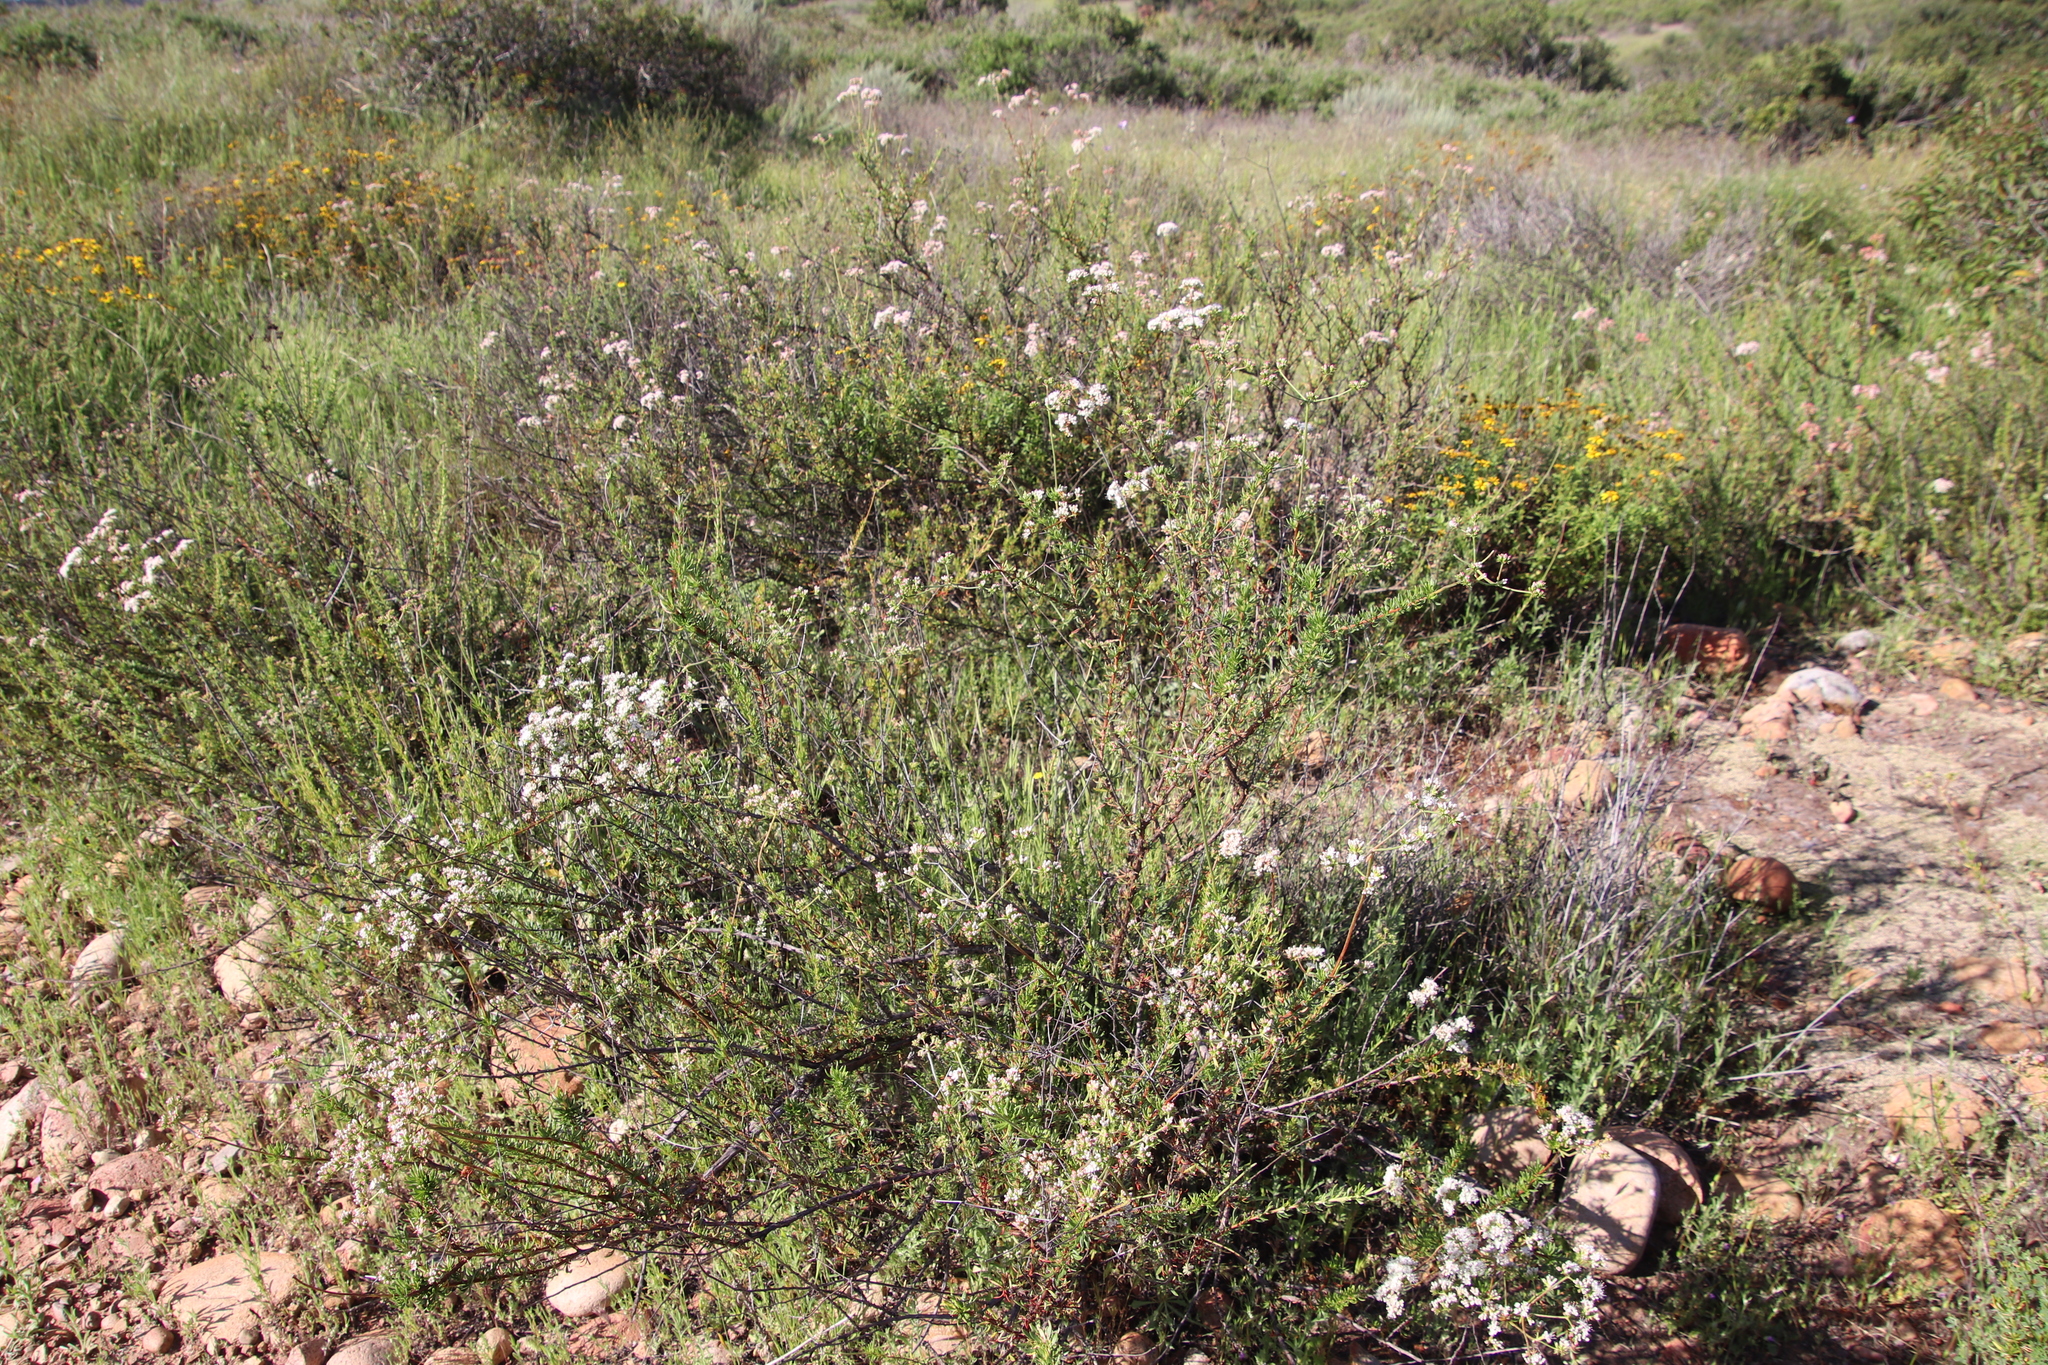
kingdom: Plantae
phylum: Tracheophyta
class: Magnoliopsida
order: Caryophyllales
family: Polygonaceae
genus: Eriogonum
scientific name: Eriogonum fasciculatum
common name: California wild buckwheat
